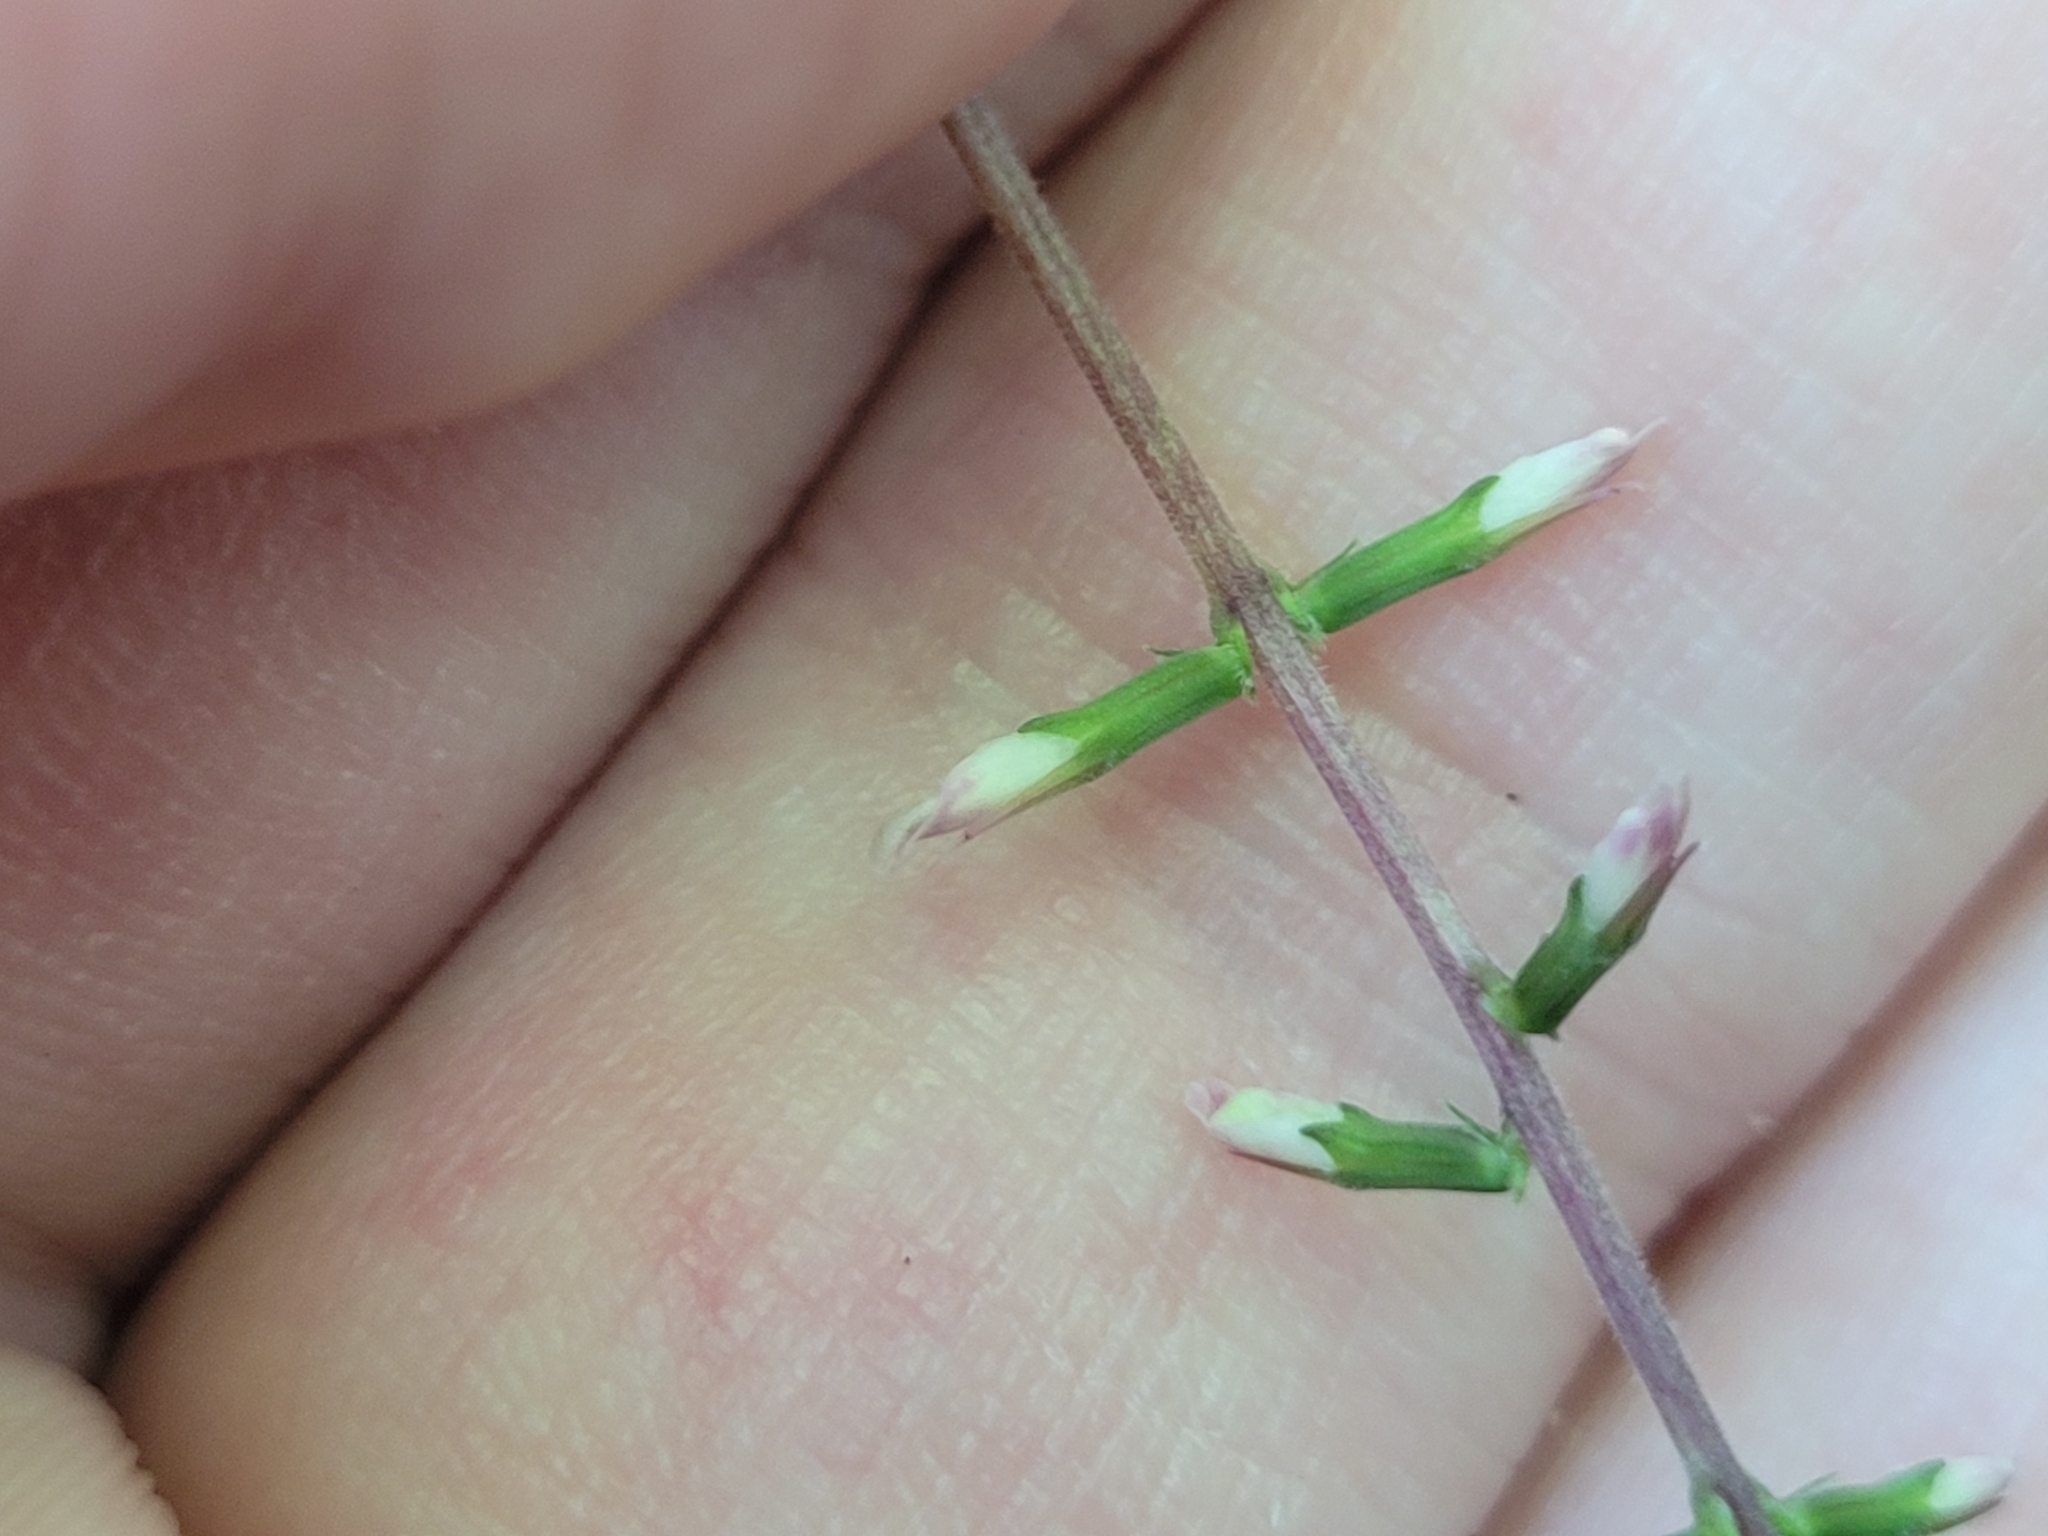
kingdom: Plantae
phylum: Tracheophyta
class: Magnoliopsida
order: Lamiales
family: Phrymaceae
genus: Phryma
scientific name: Phryma leptostachya
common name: American lopseed
